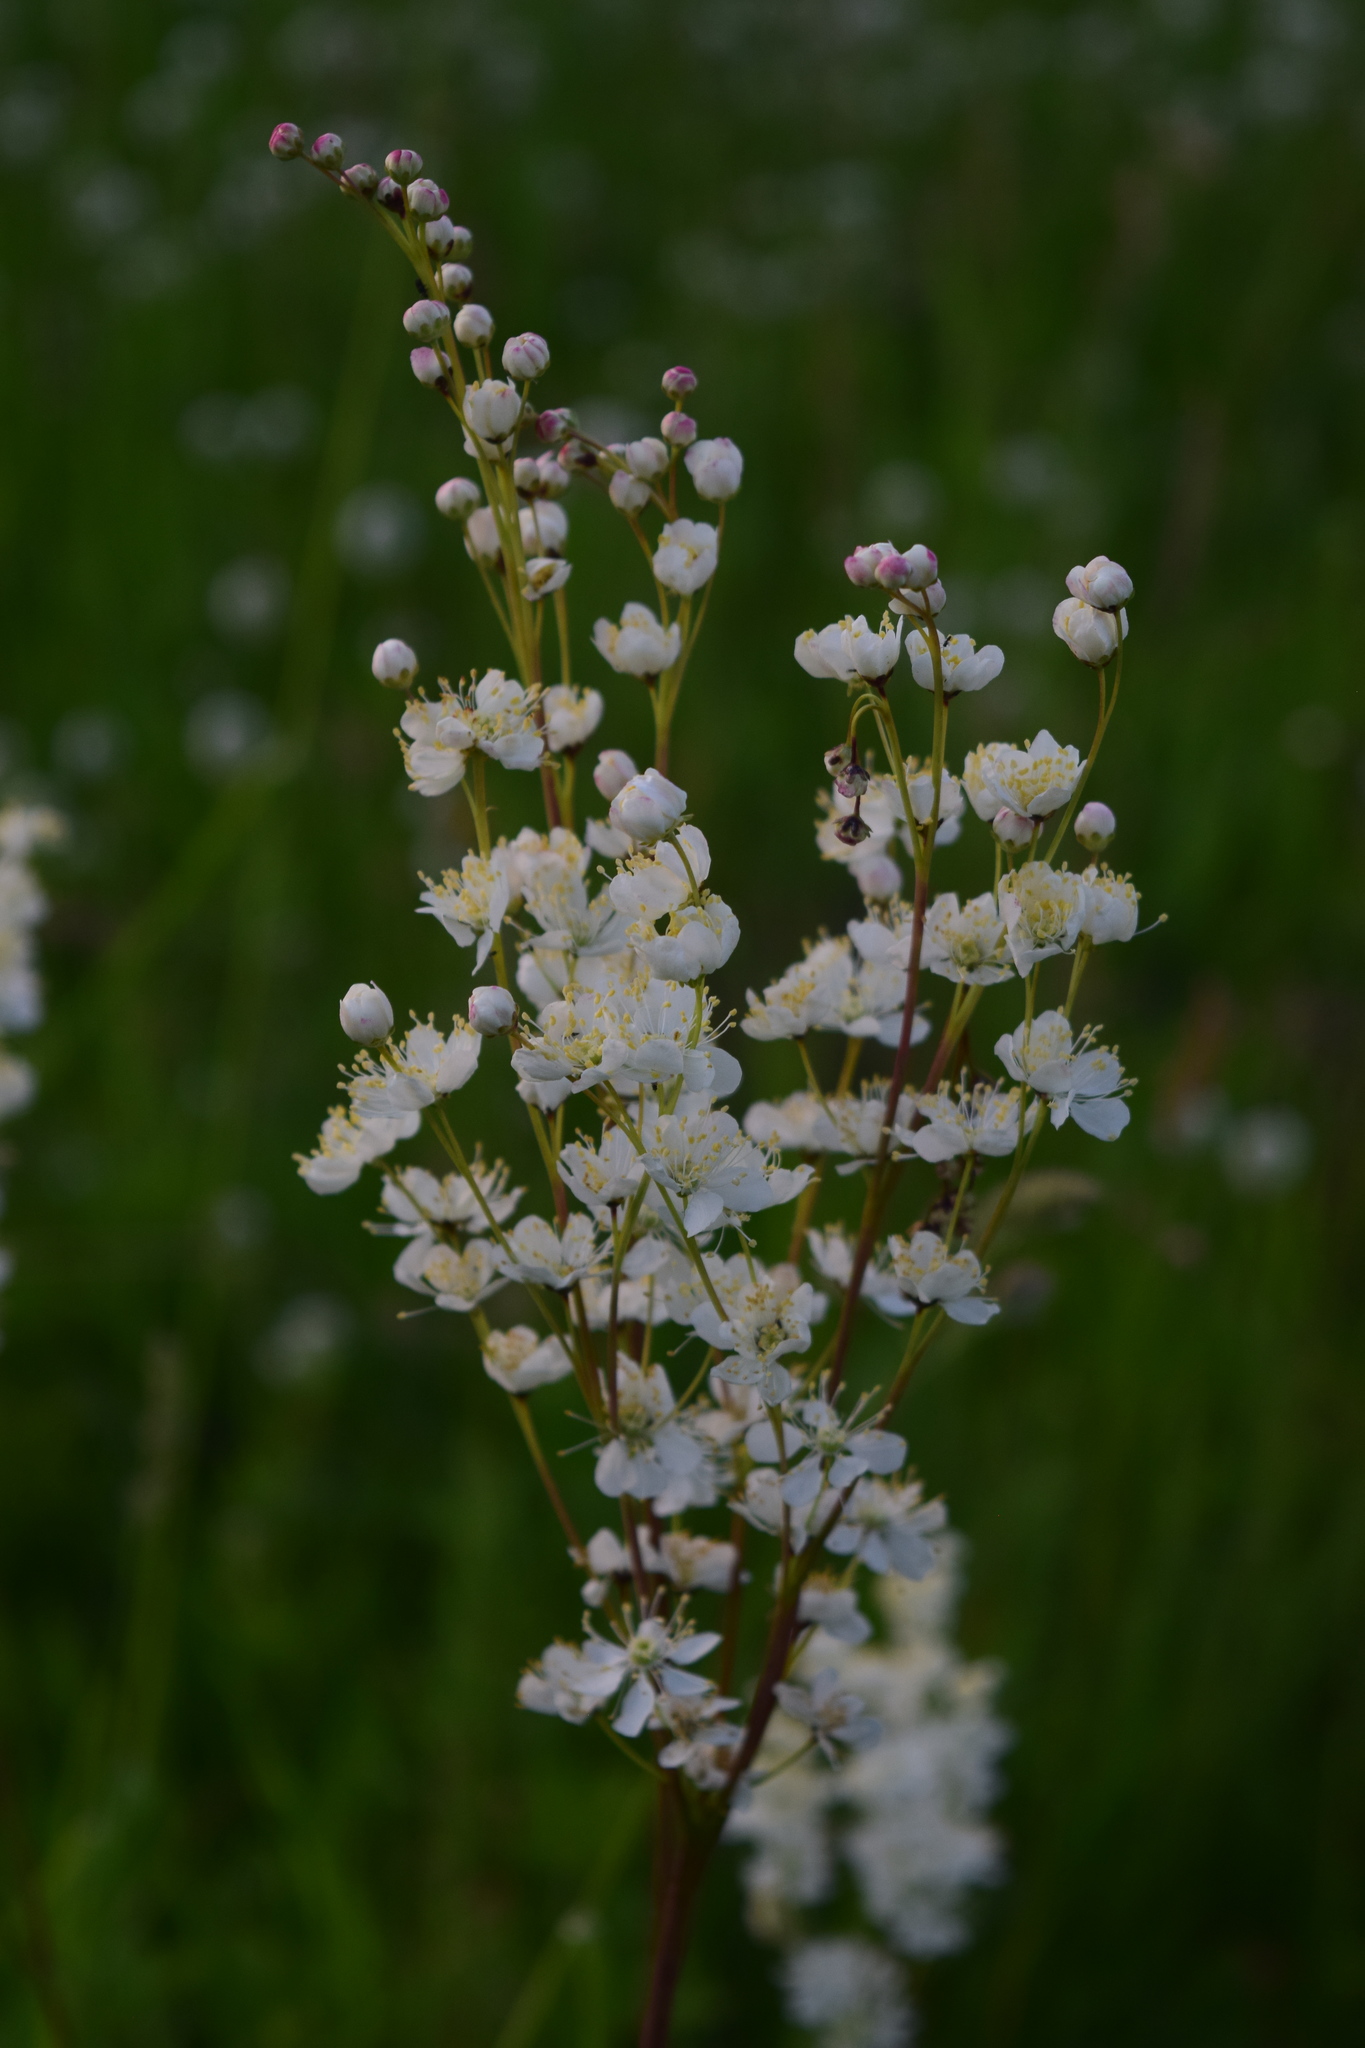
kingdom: Plantae
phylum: Tracheophyta
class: Magnoliopsida
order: Rosales
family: Rosaceae
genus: Filipendula
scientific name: Filipendula vulgaris
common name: Dropwort
